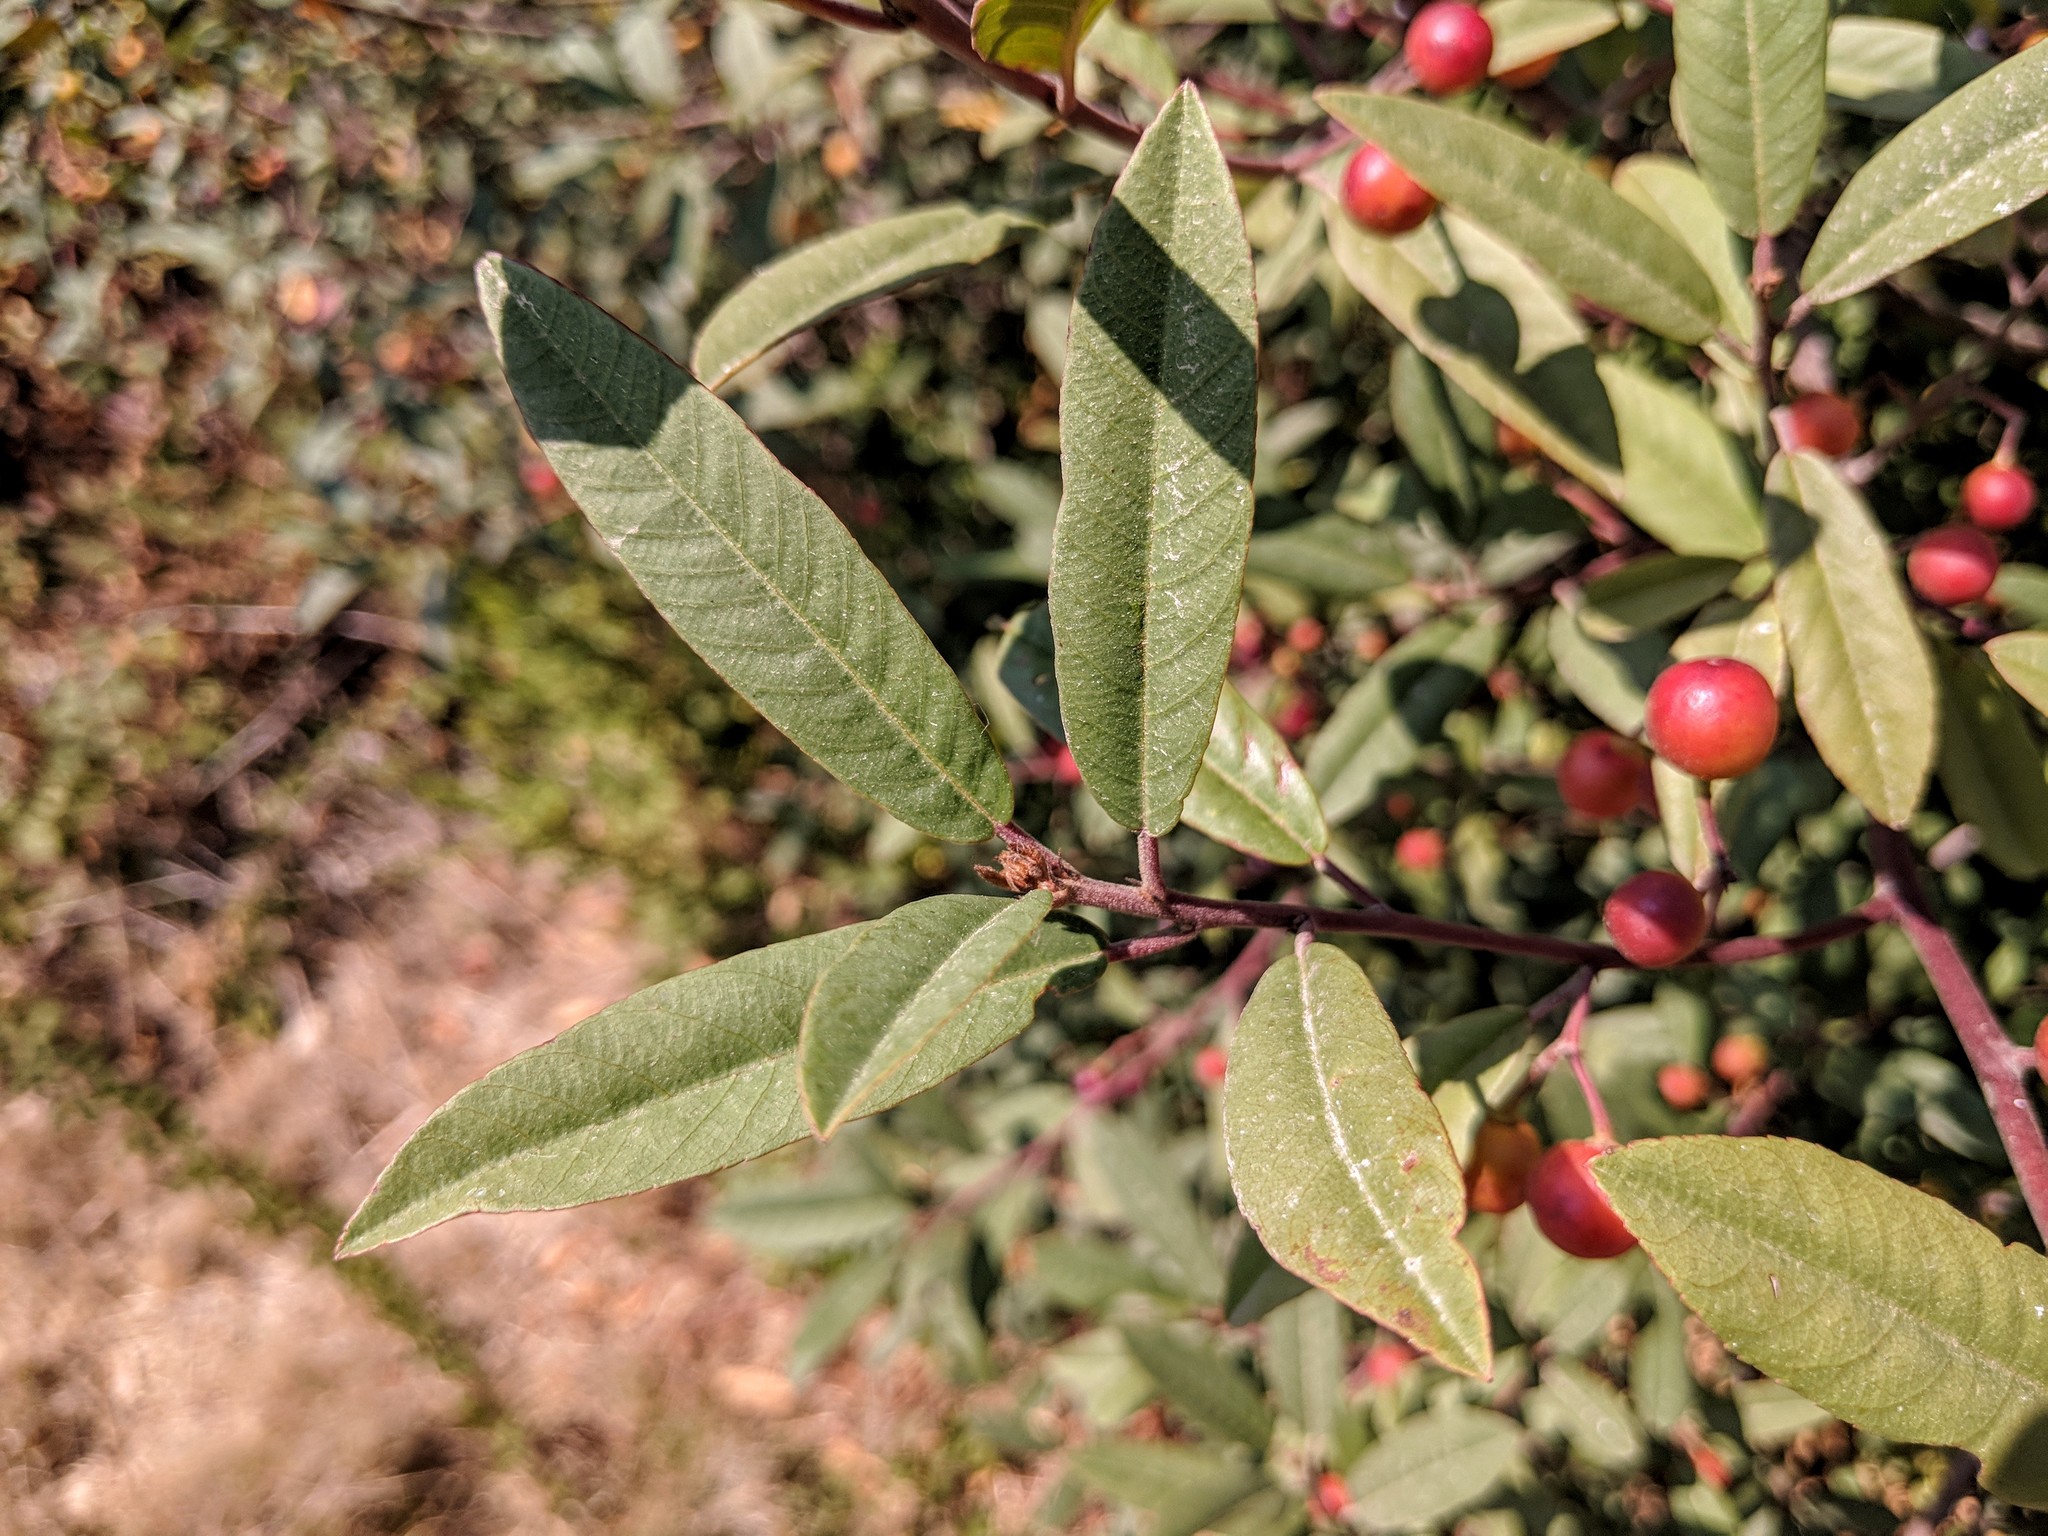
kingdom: Plantae
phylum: Tracheophyta
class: Magnoliopsida
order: Rosales
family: Rhamnaceae
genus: Frangula
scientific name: Frangula californica
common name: California buckthorn
